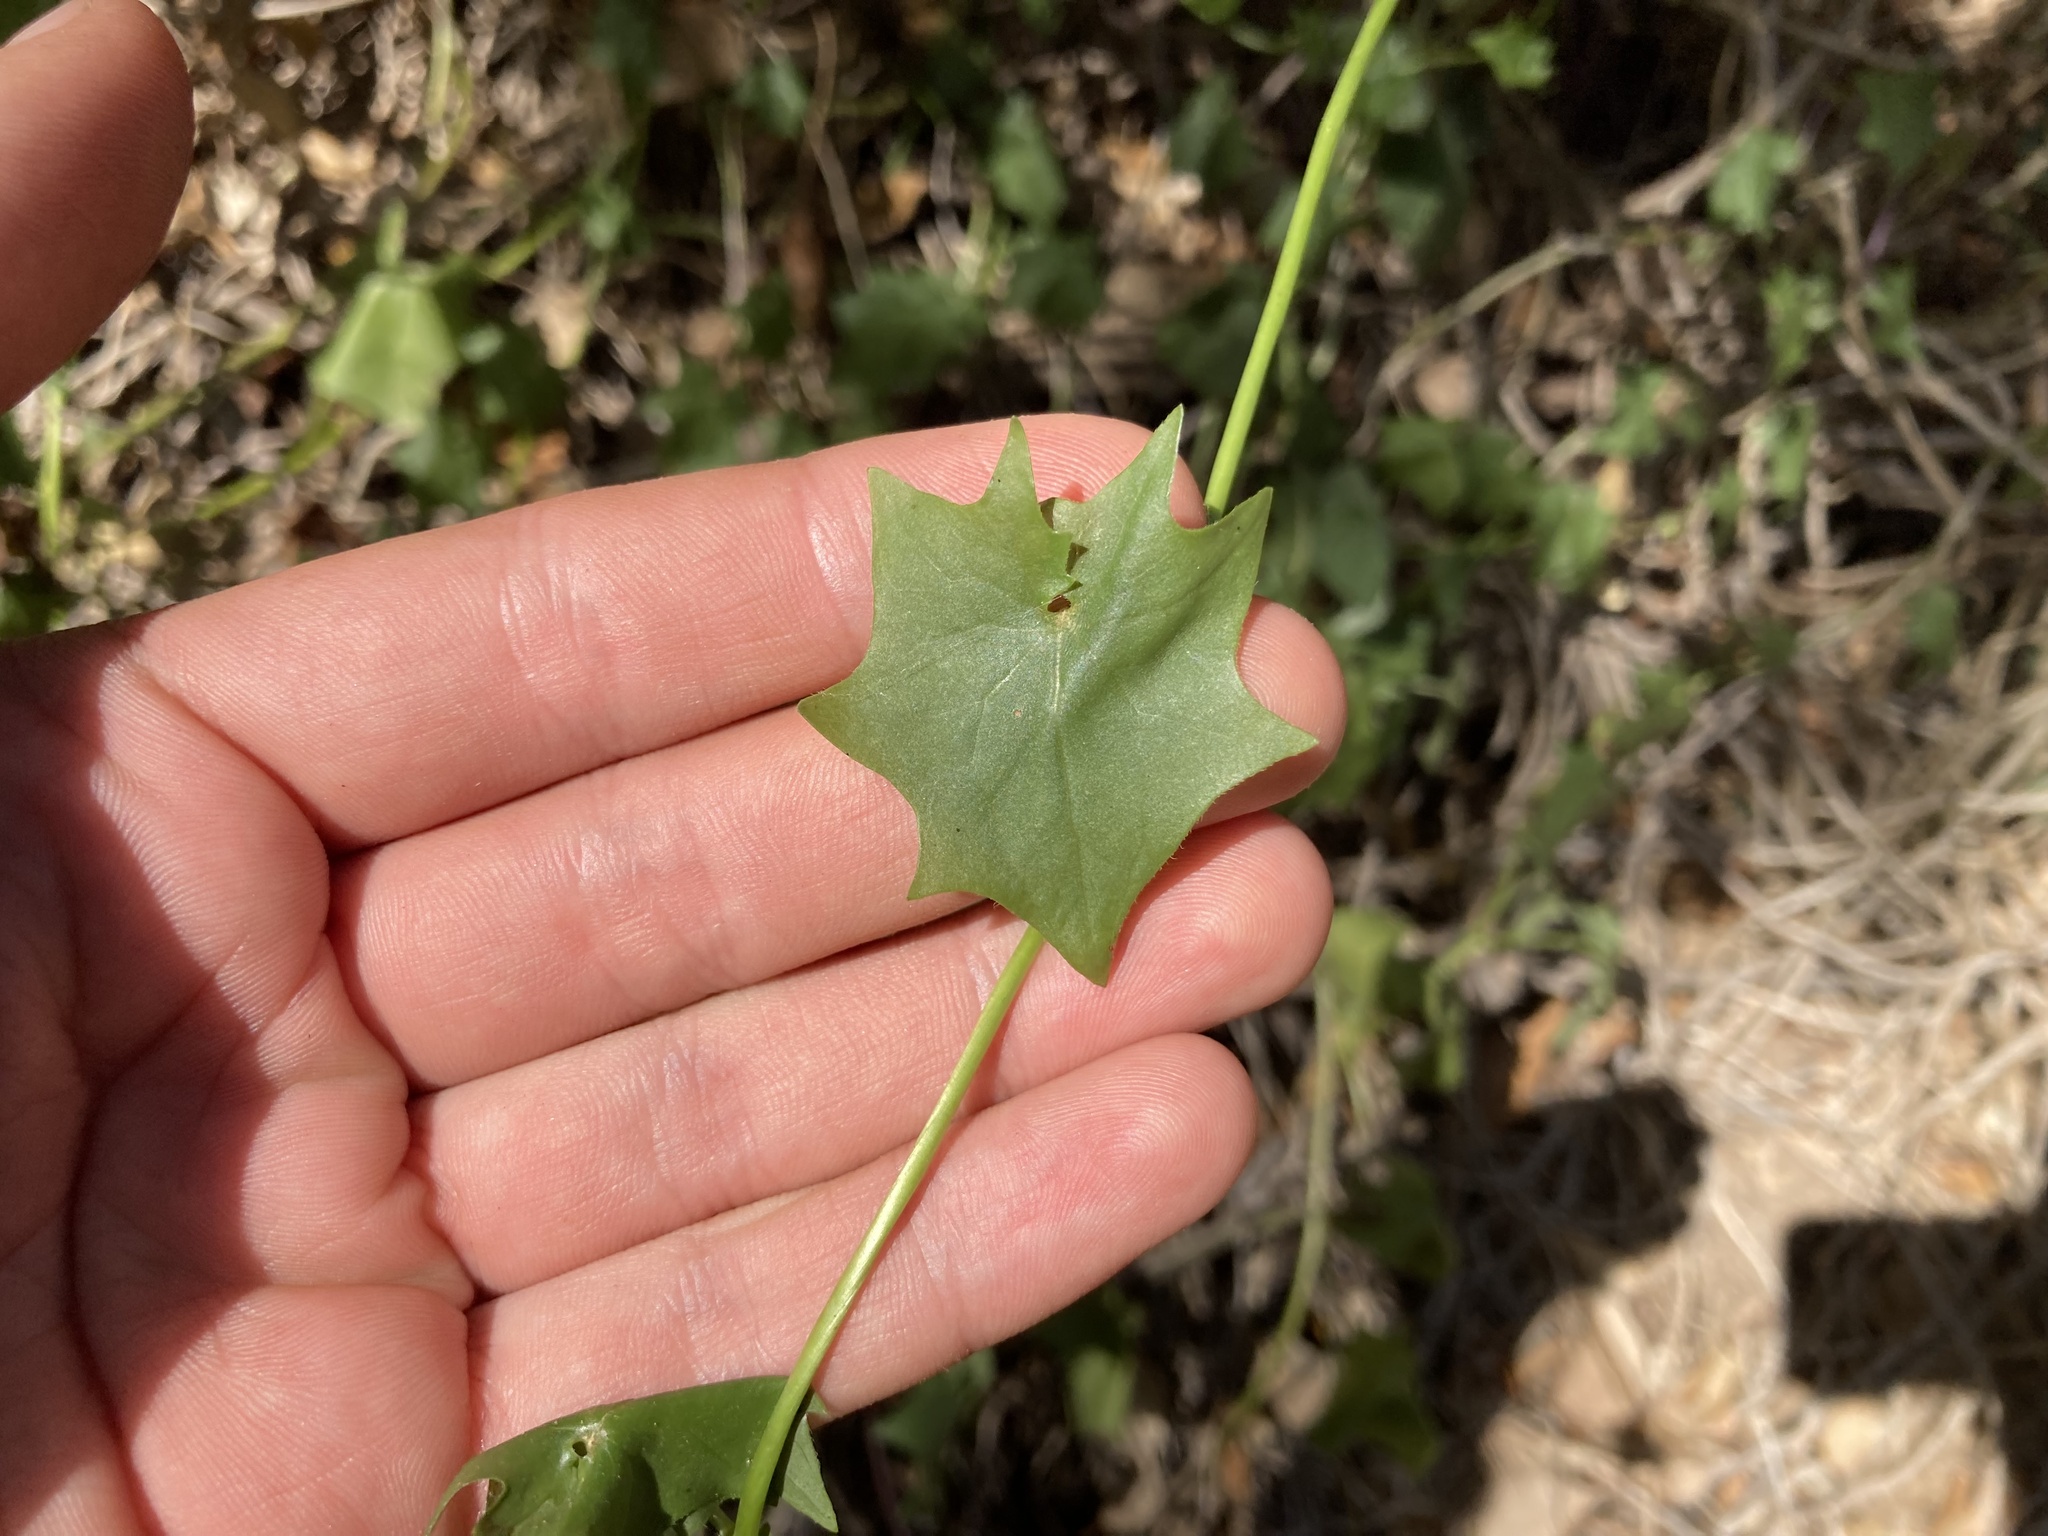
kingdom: Plantae
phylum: Tracheophyta
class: Magnoliopsida
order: Asterales
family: Asteraceae
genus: Delairea
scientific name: Delairea odorata
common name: Cape-ivy
